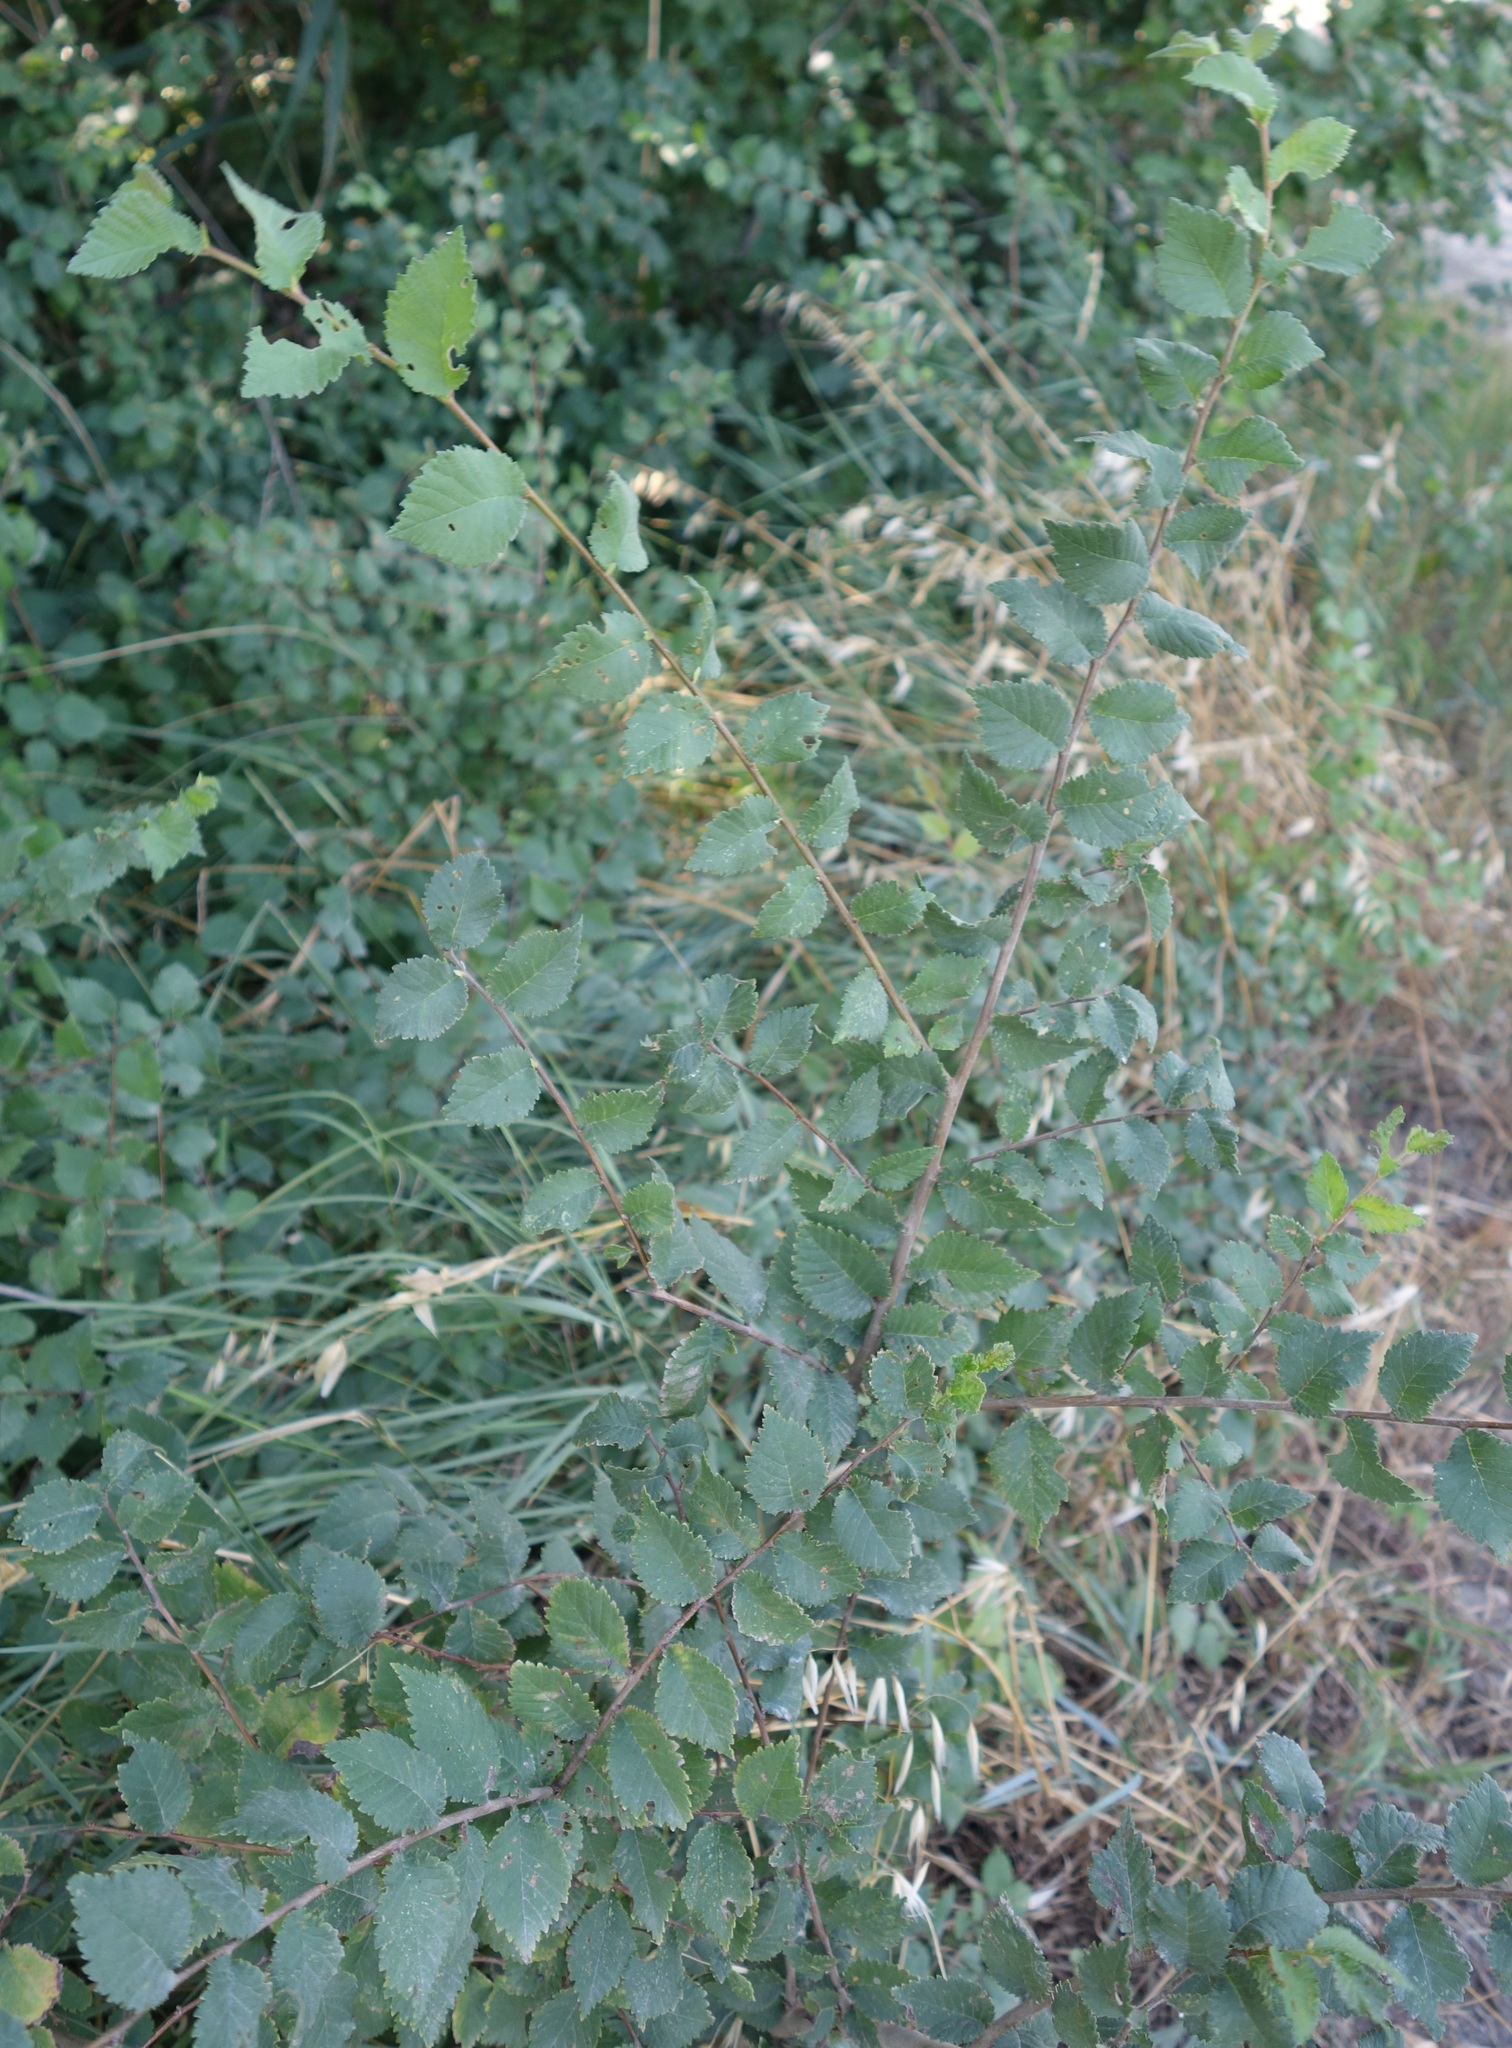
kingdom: Plantae
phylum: Tracheophyta
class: Magnoliopsida
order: Rosales
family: Ulmaceae
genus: Ulmus
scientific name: Ulmus minor
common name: Small-leaved elm
